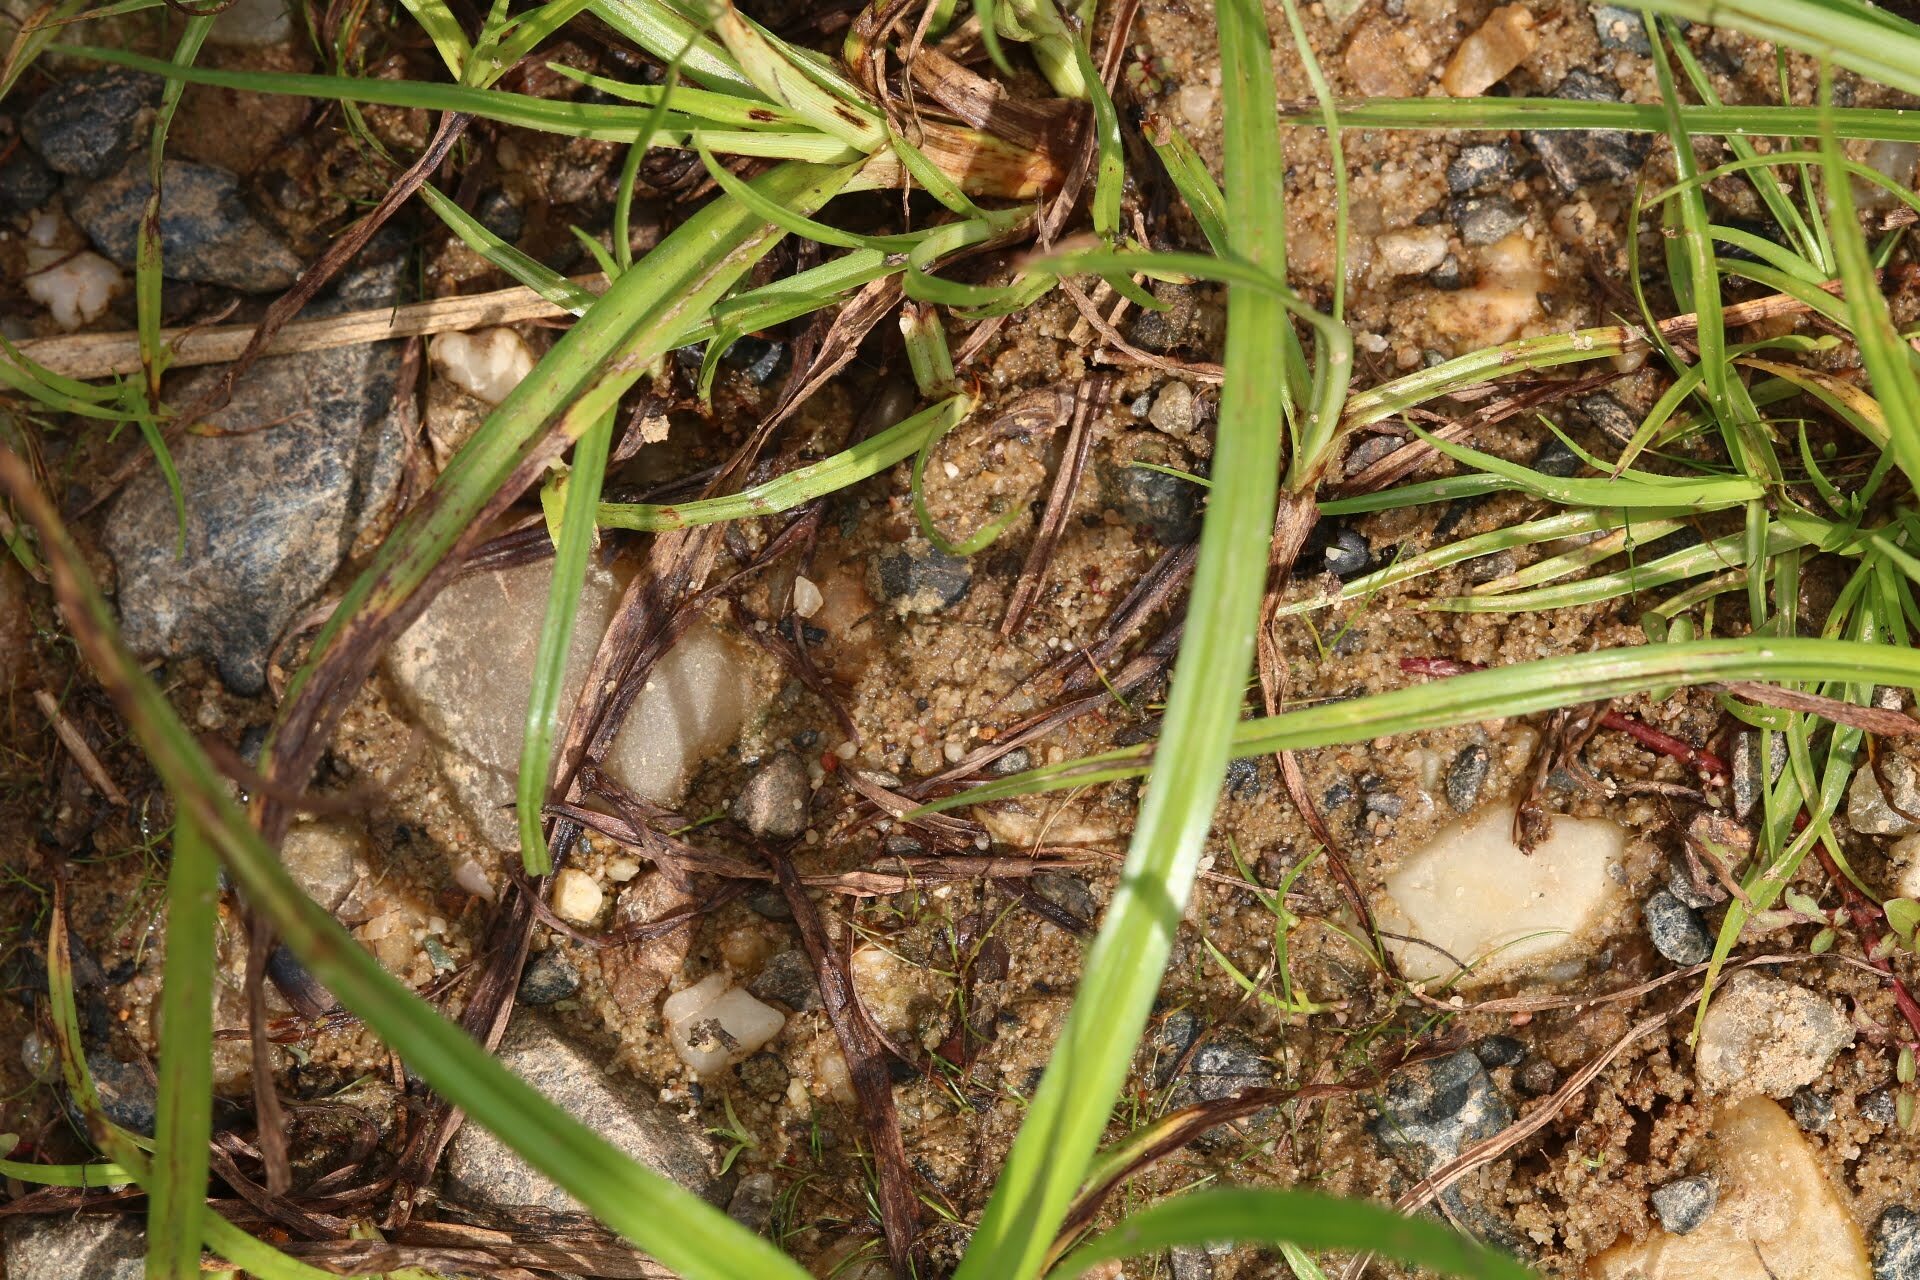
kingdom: Animalia
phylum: Arthropoda
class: Insecta
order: Hemiptera
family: Gelastocoridae
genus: Gelastocoris
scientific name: Gelastocoris oculatus
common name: Toad bug
